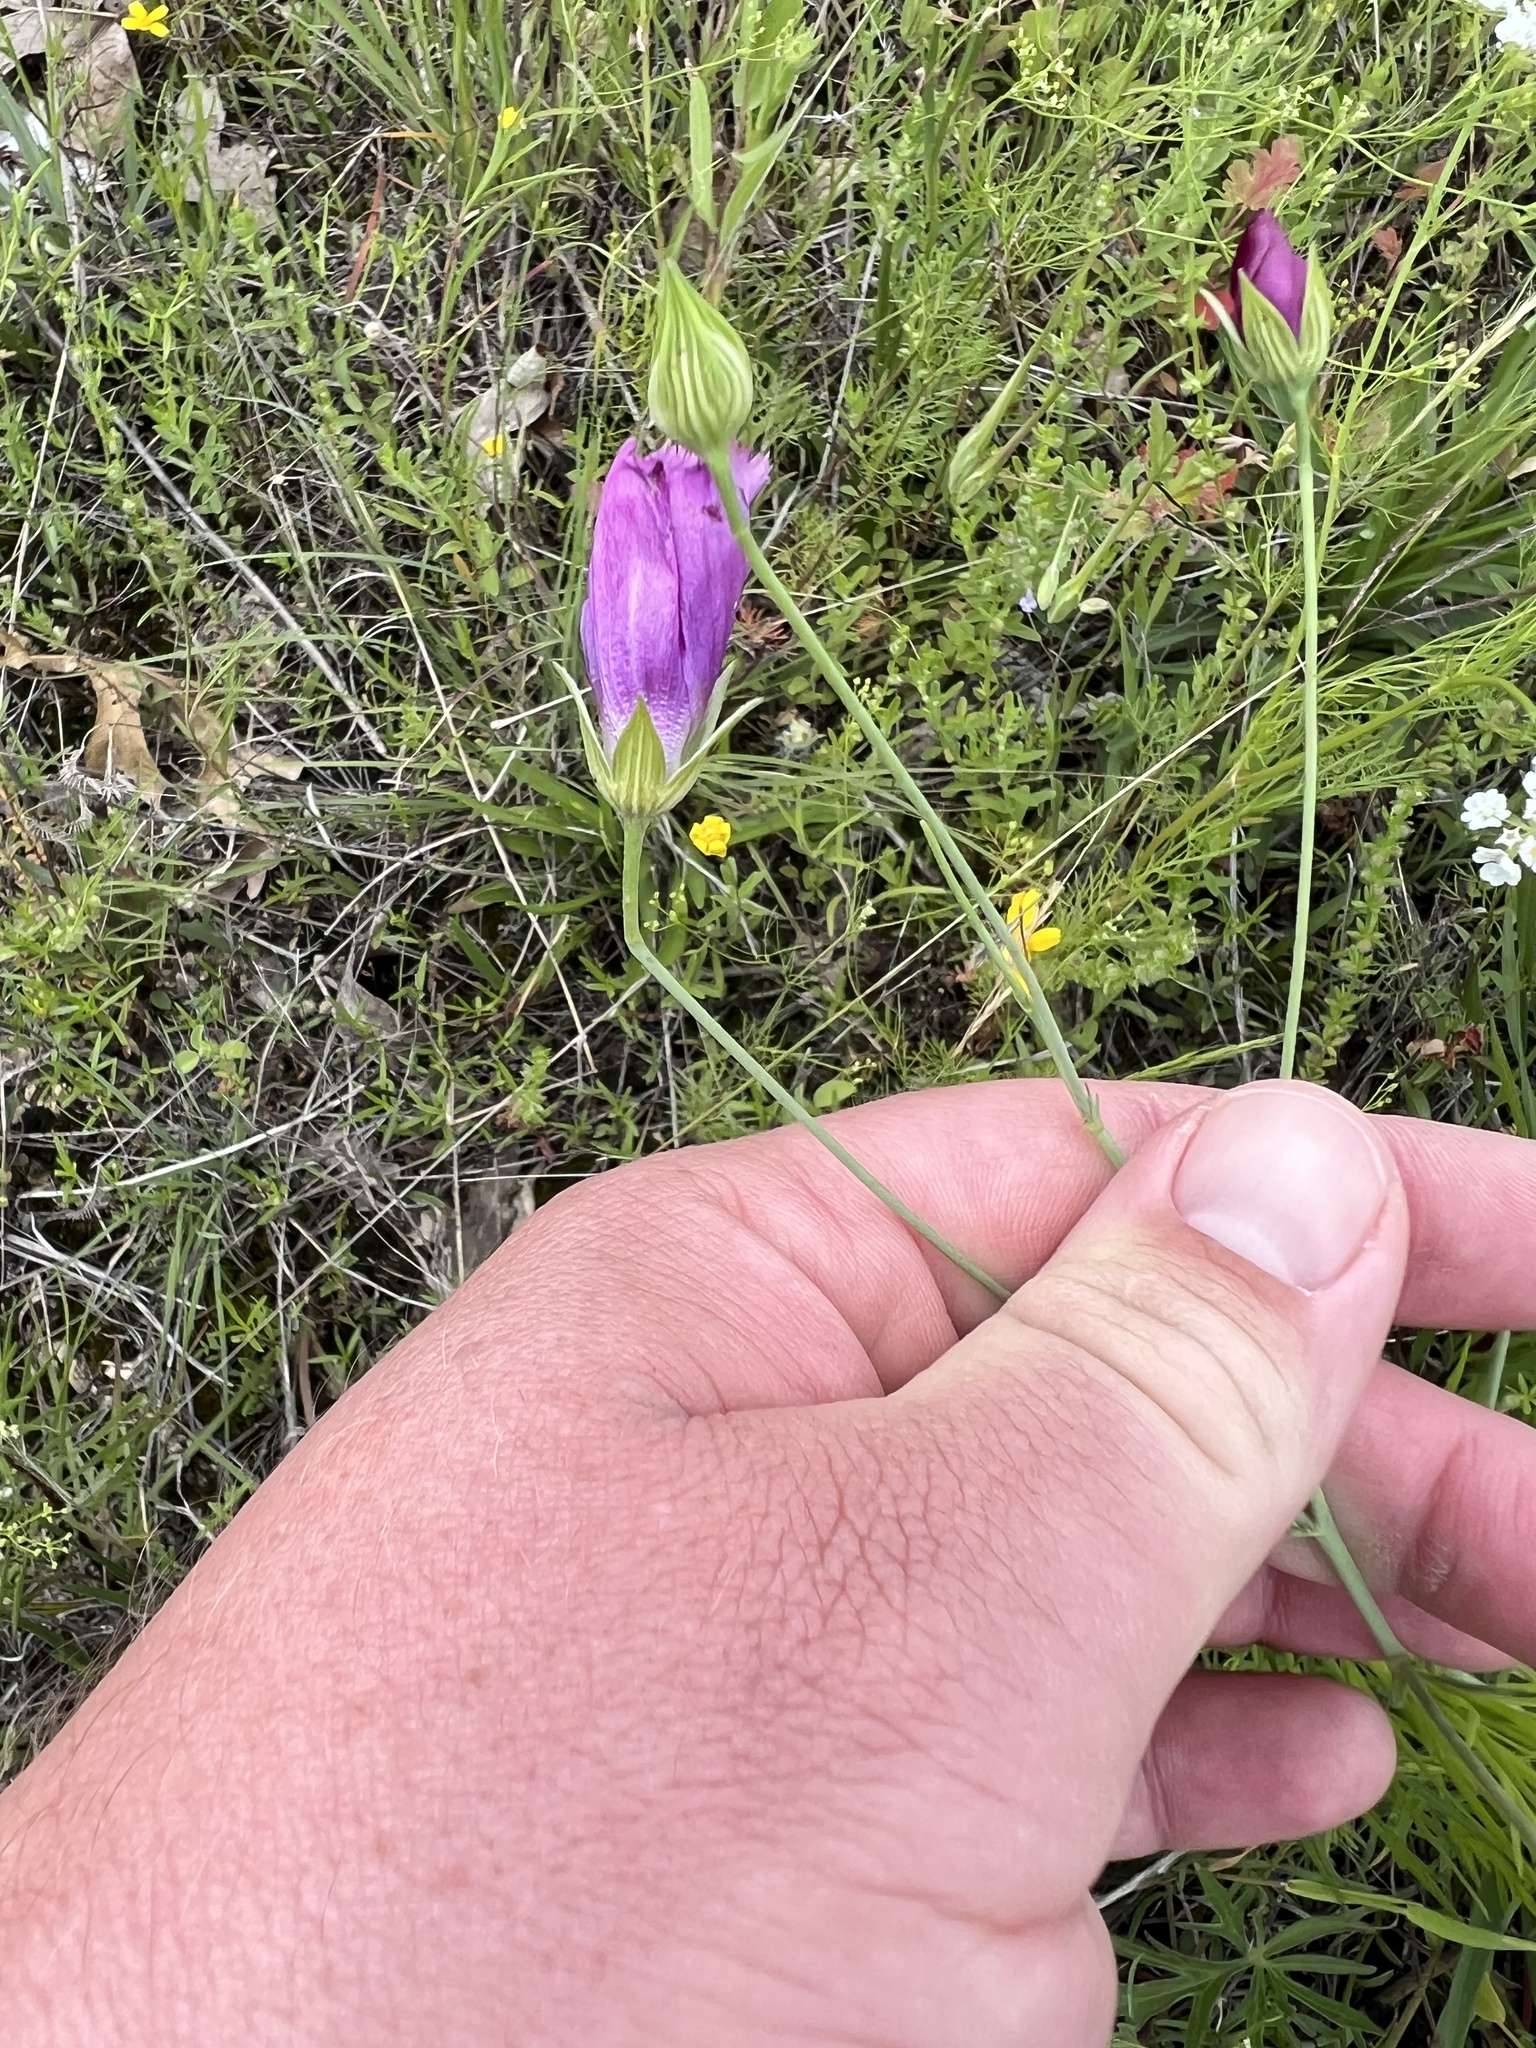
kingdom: Plantae
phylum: Tracheophyta
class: Magnoliopsida
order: Malvales
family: Malvaceae
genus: Callirhoe
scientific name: Callirhoe pedata
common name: Finger poppy-mallow
